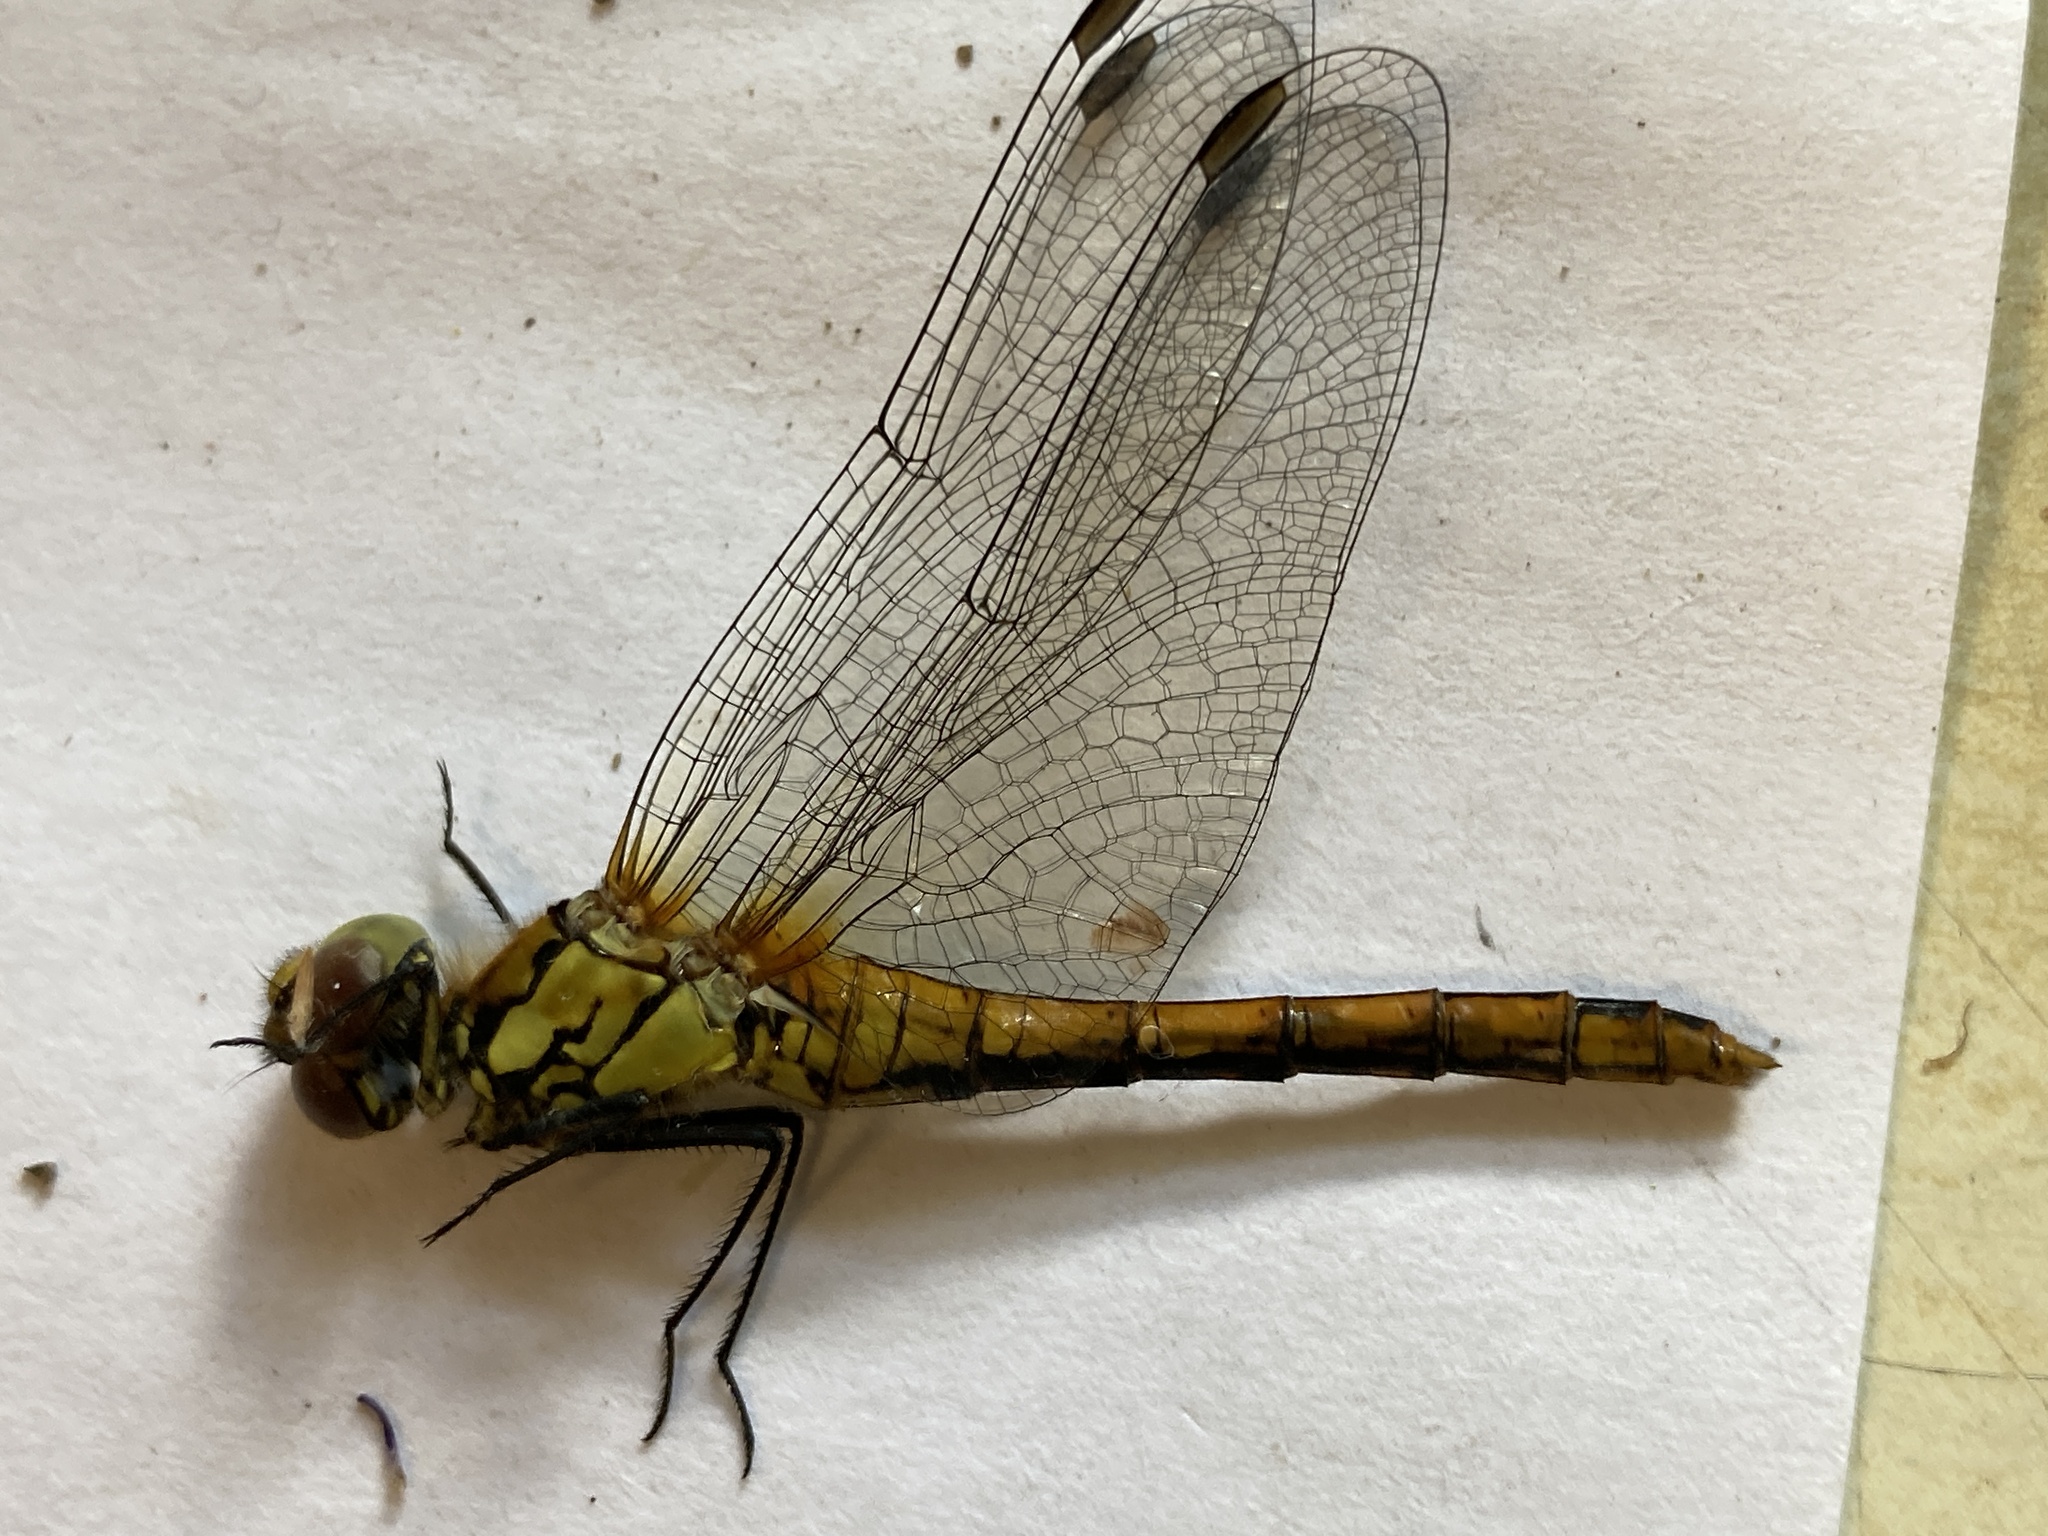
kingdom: Animalia
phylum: Arthropoda
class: Insecta
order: Odonata
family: Libellulidae
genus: Sympetrum
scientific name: Sympetrum sanguineum
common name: Ruddy darter
